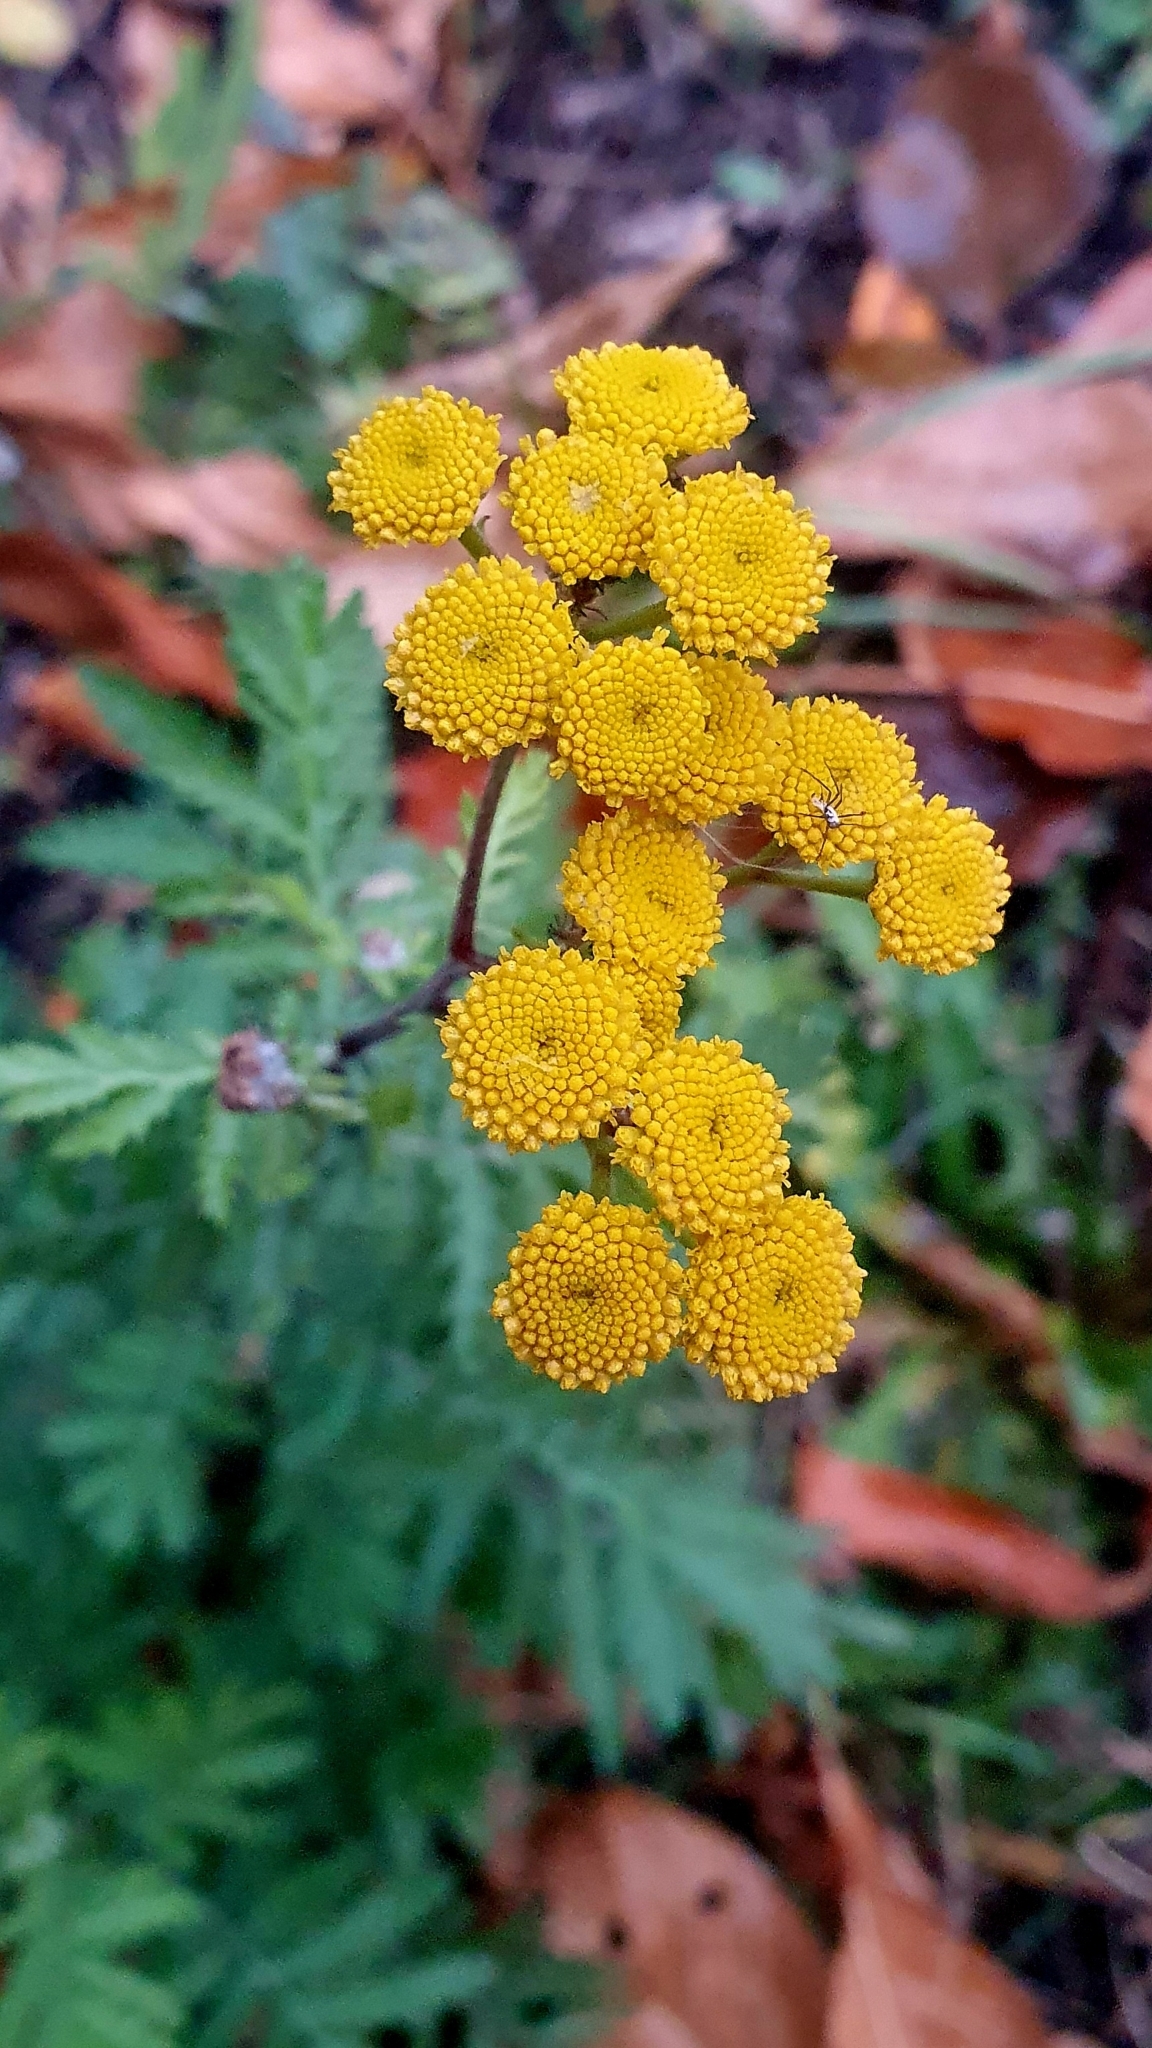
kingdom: Plantae
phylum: Tracheophyta
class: Magnoliopsida
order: Asterales
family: Asteraceae
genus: Tanacetum
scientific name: Tanacetum vulgare
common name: Common tansy
